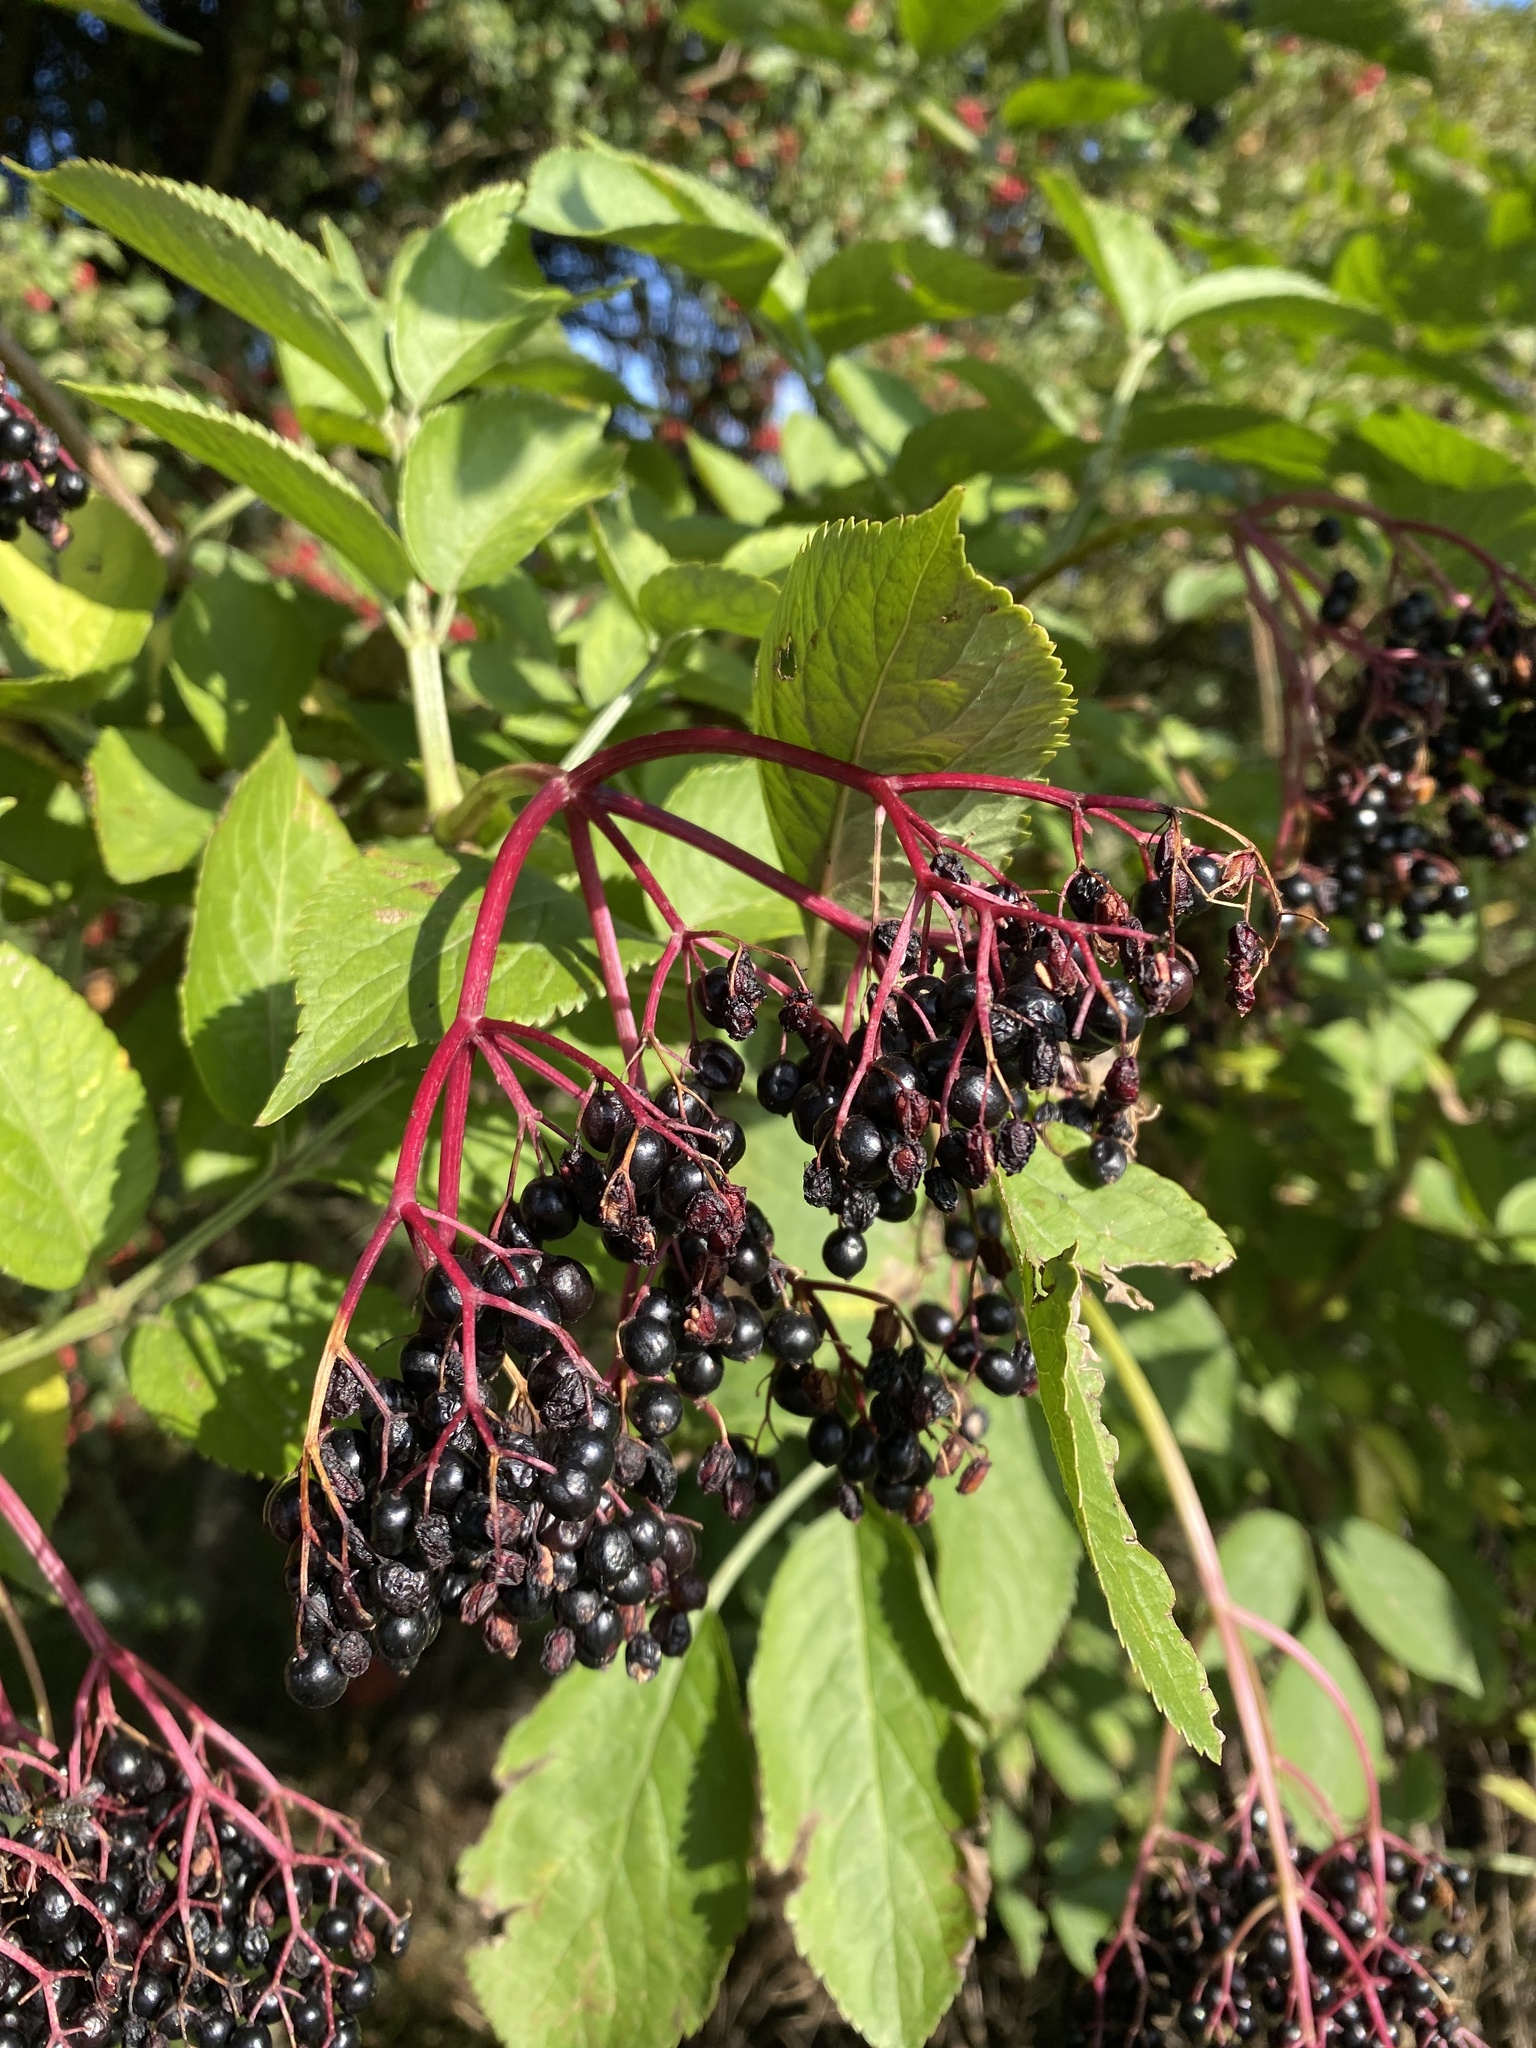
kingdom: Plantae
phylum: Tracheophyta
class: Magnoliopsida
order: Dipsacales
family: Viburnaceae
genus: Sambucus
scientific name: Sambucus nigra
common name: Elder
